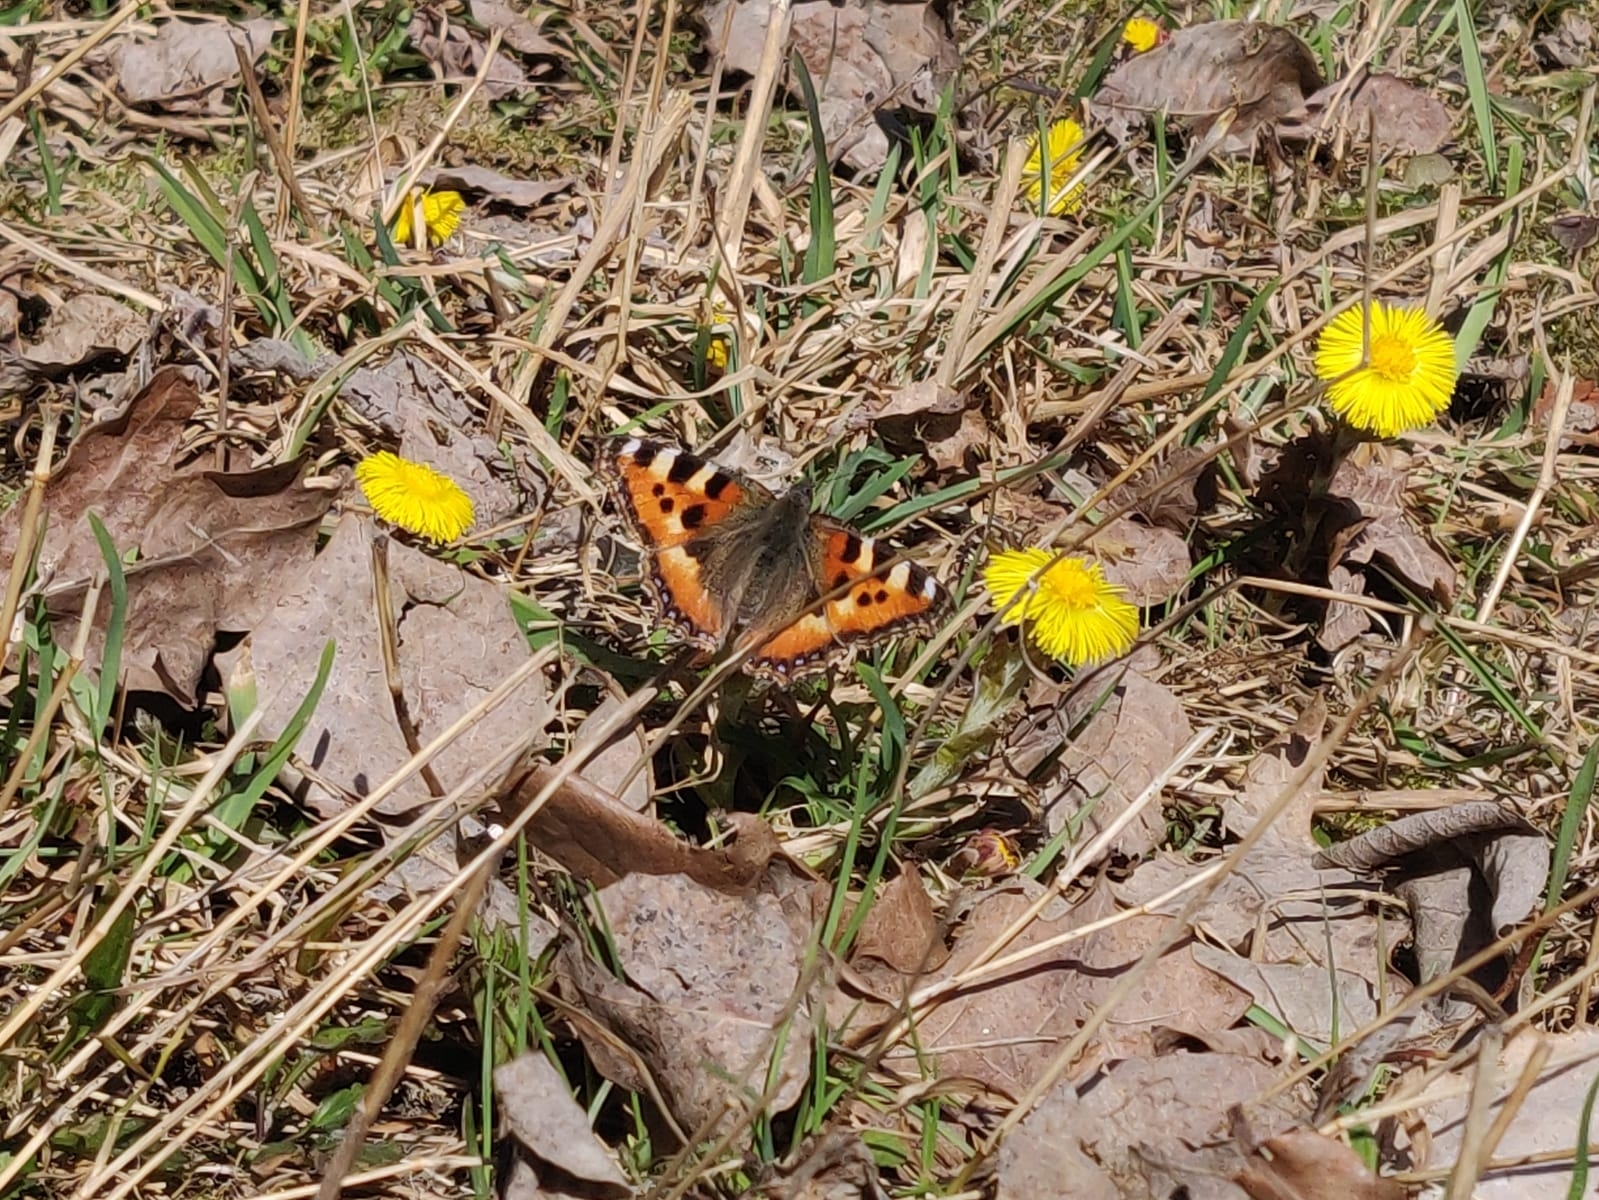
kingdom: Animalia
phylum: Arthropoda
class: Insecta
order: Lepidoptera
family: Nymphalidae
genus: Aglais
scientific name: Aglais urticae
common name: Small tortoiseshell
